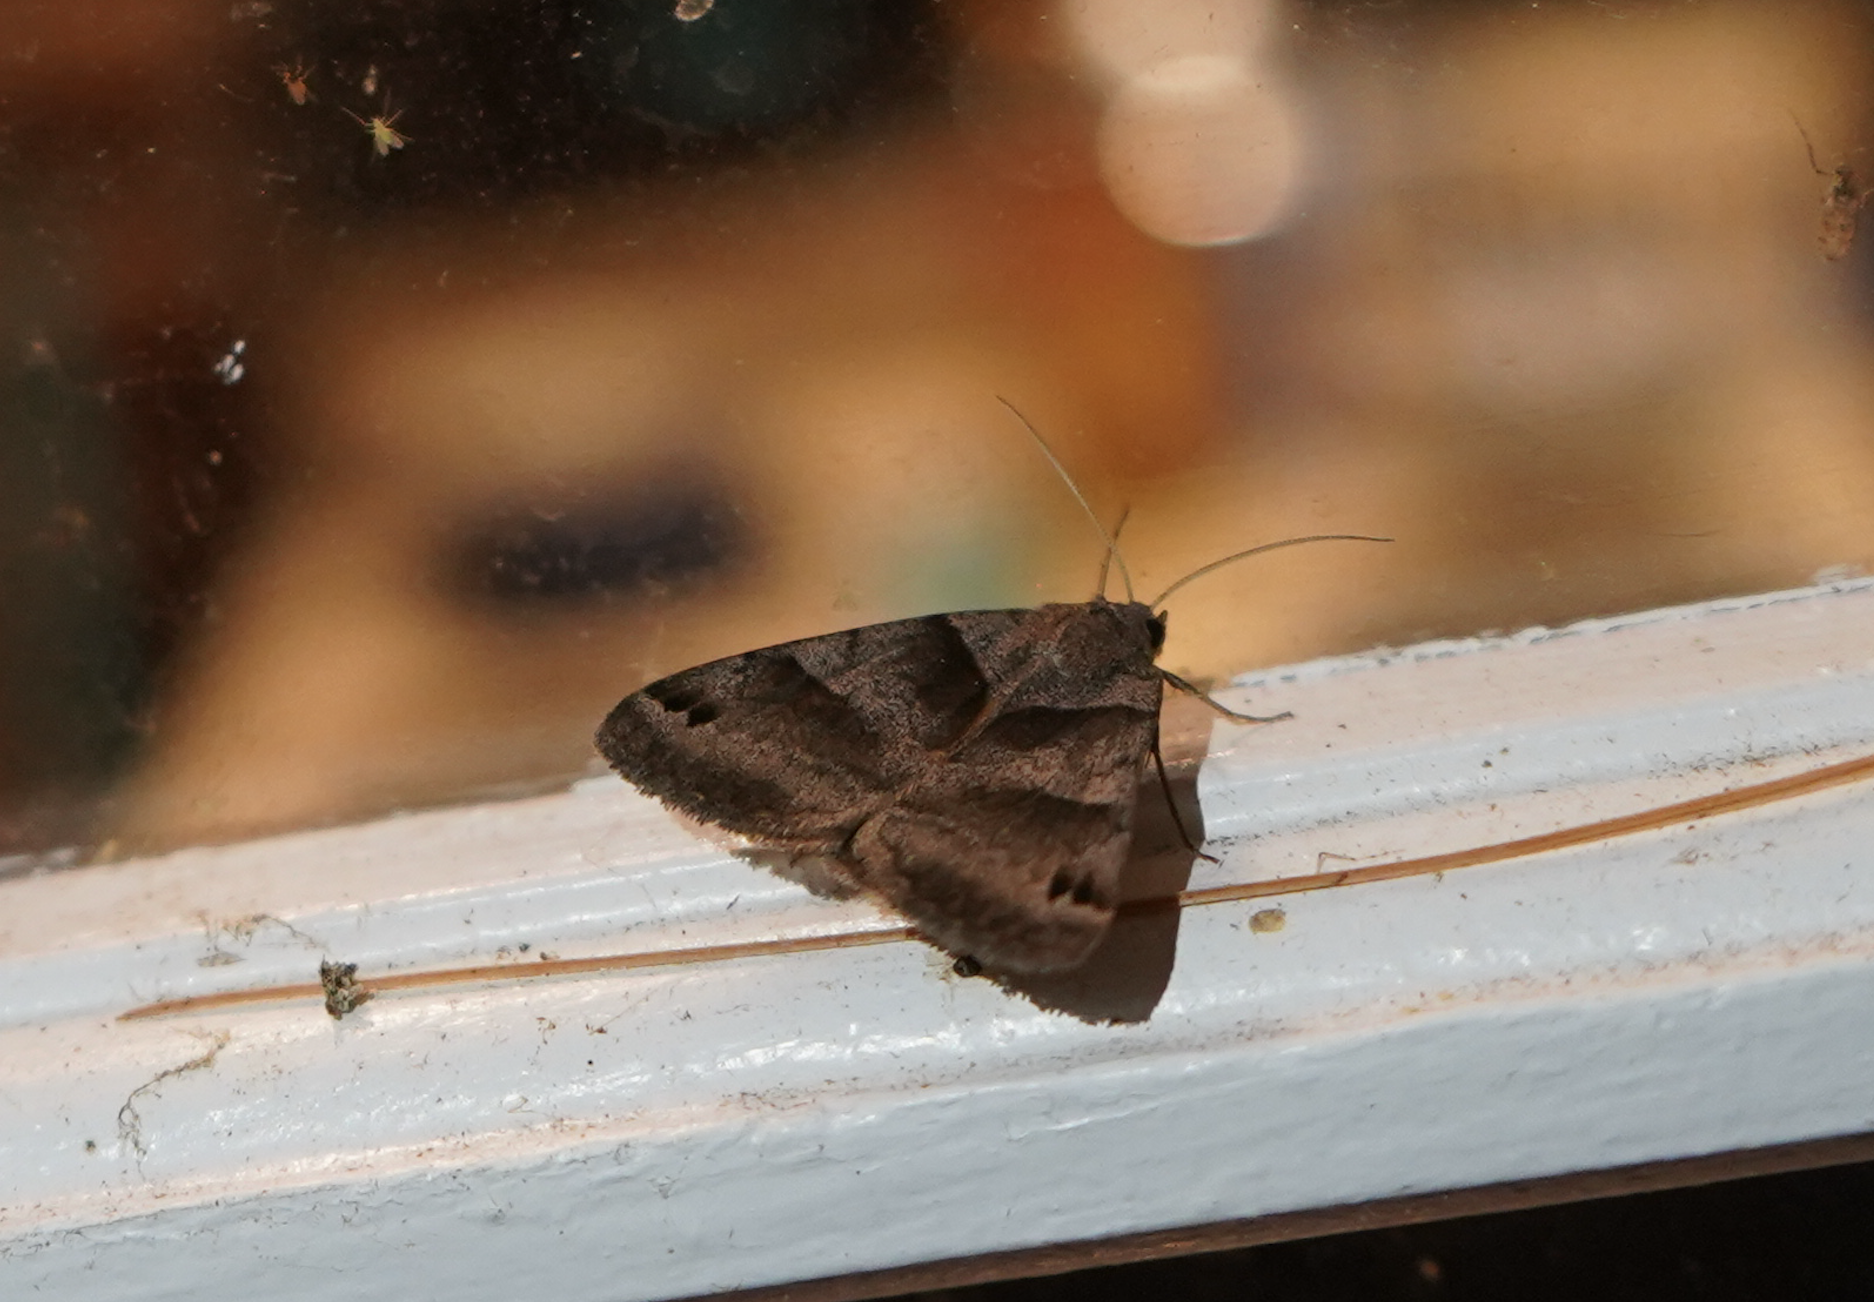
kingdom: Animalia
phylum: Arthropoda
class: Insecta
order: Lepidoptera
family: Erebidae
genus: Caenurgina
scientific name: Caenurgina crassiuscula
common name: Double-barred
